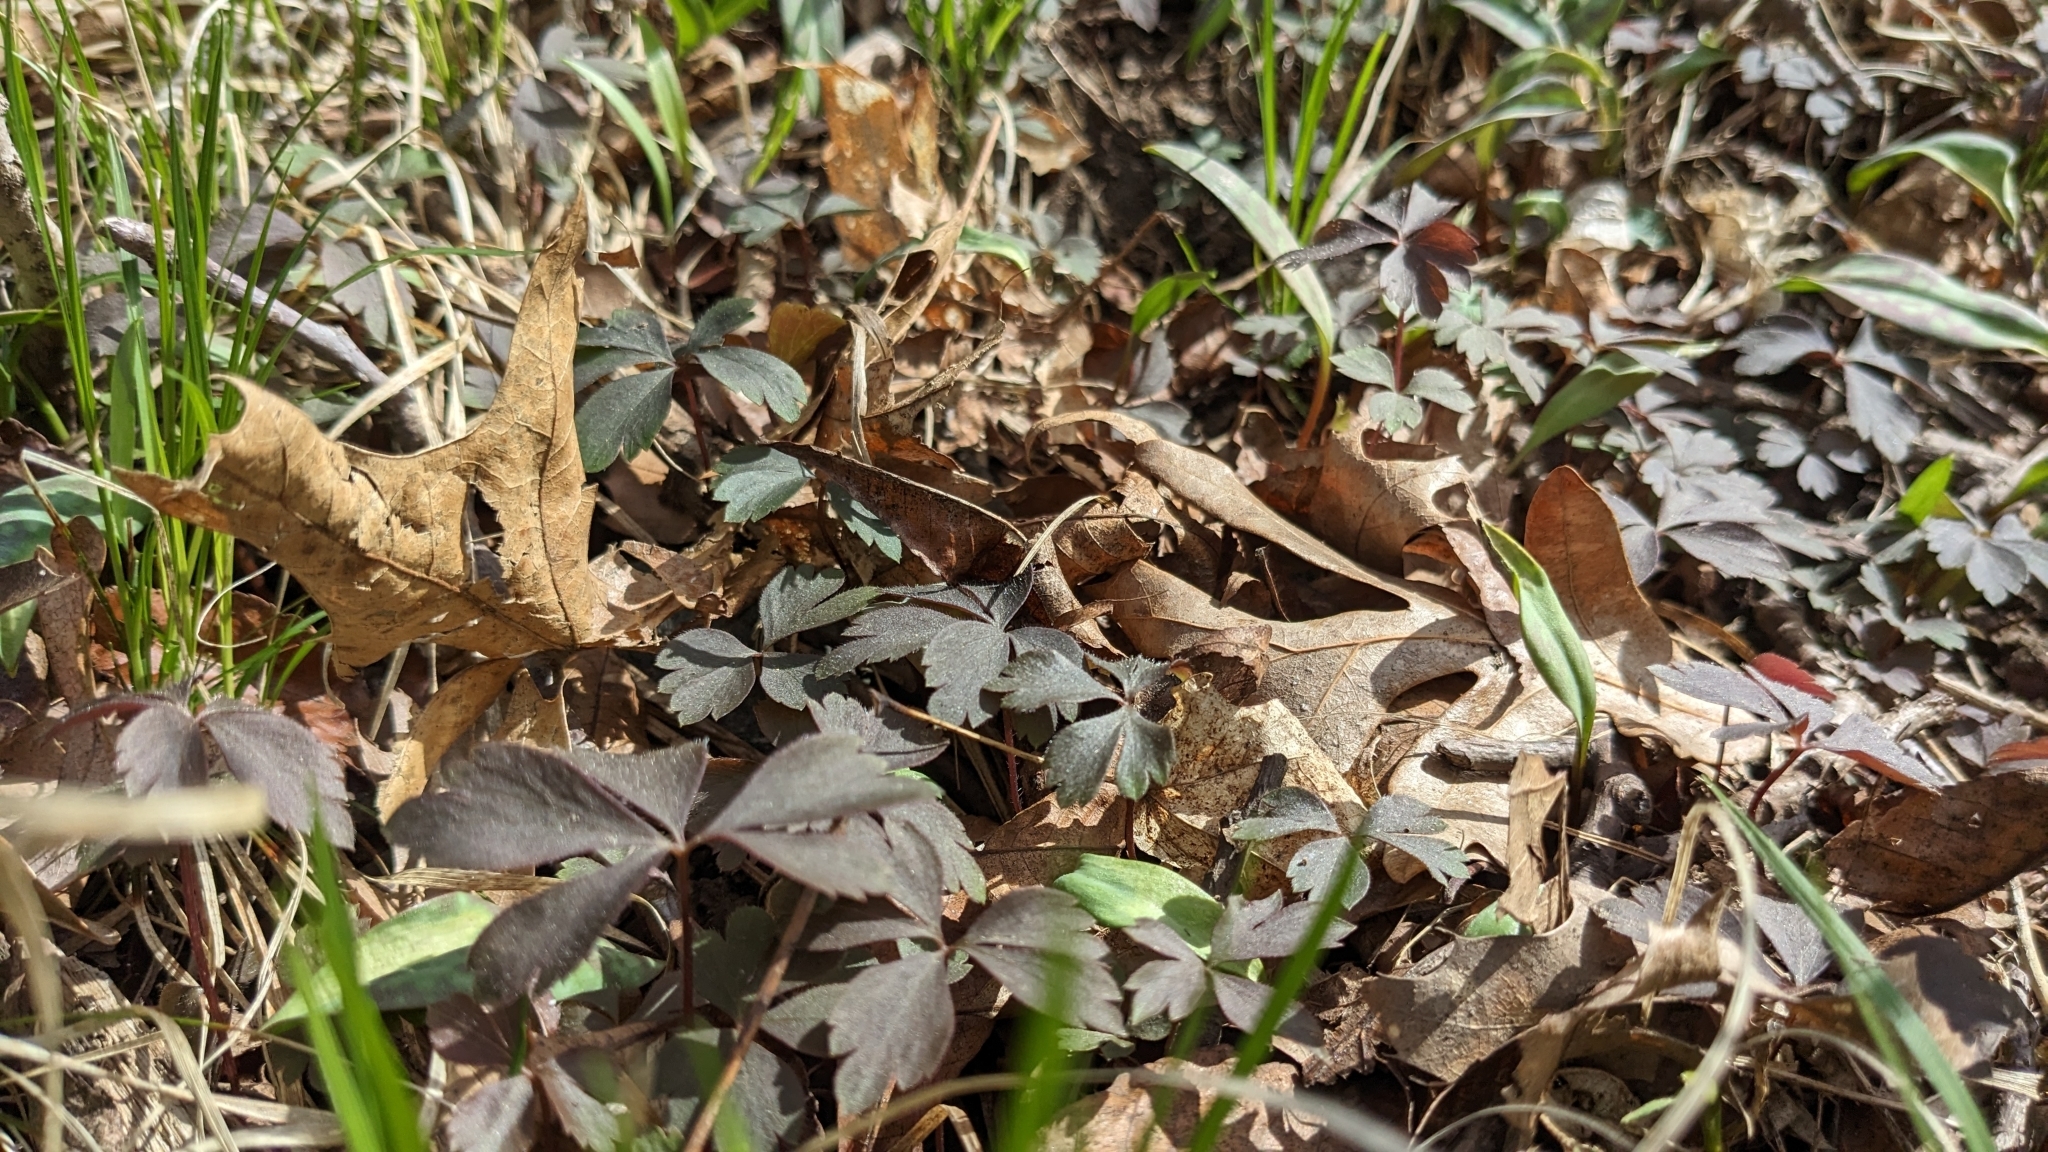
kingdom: Plantae
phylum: Tracheophyta
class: Magnoliopsida
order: Ranunculales
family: Ranunculaceae
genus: Anemone
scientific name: Anemone quinquefolia
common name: Wood anemone
